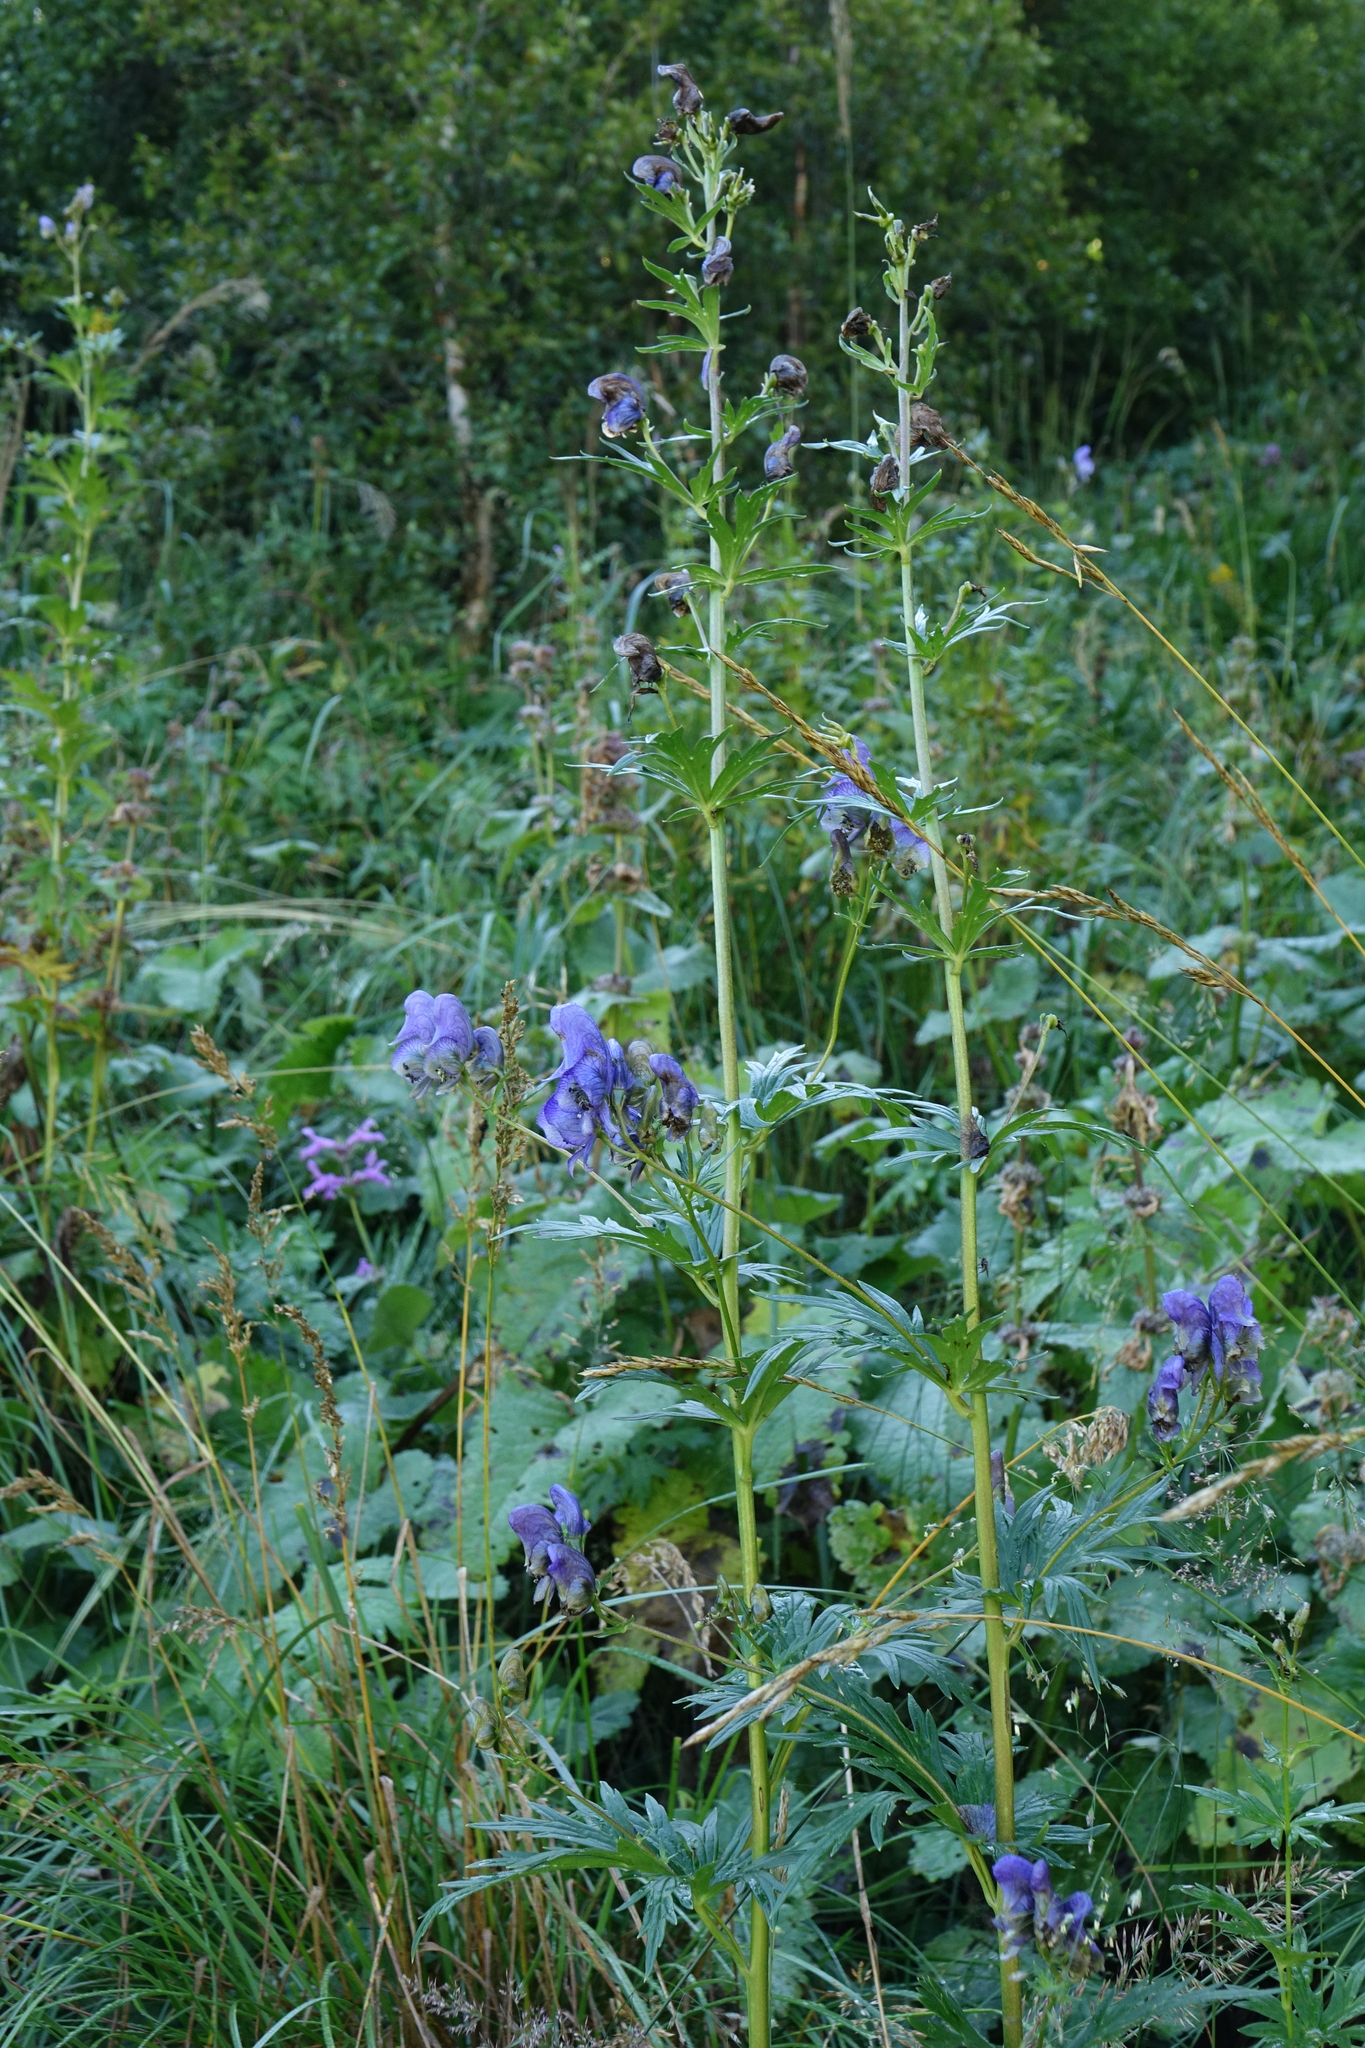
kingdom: Plantae
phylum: Tracheophyta
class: Magnoliopsida
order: Ranunculales
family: Ranunculaceae
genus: Aconitum
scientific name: Aconitum
